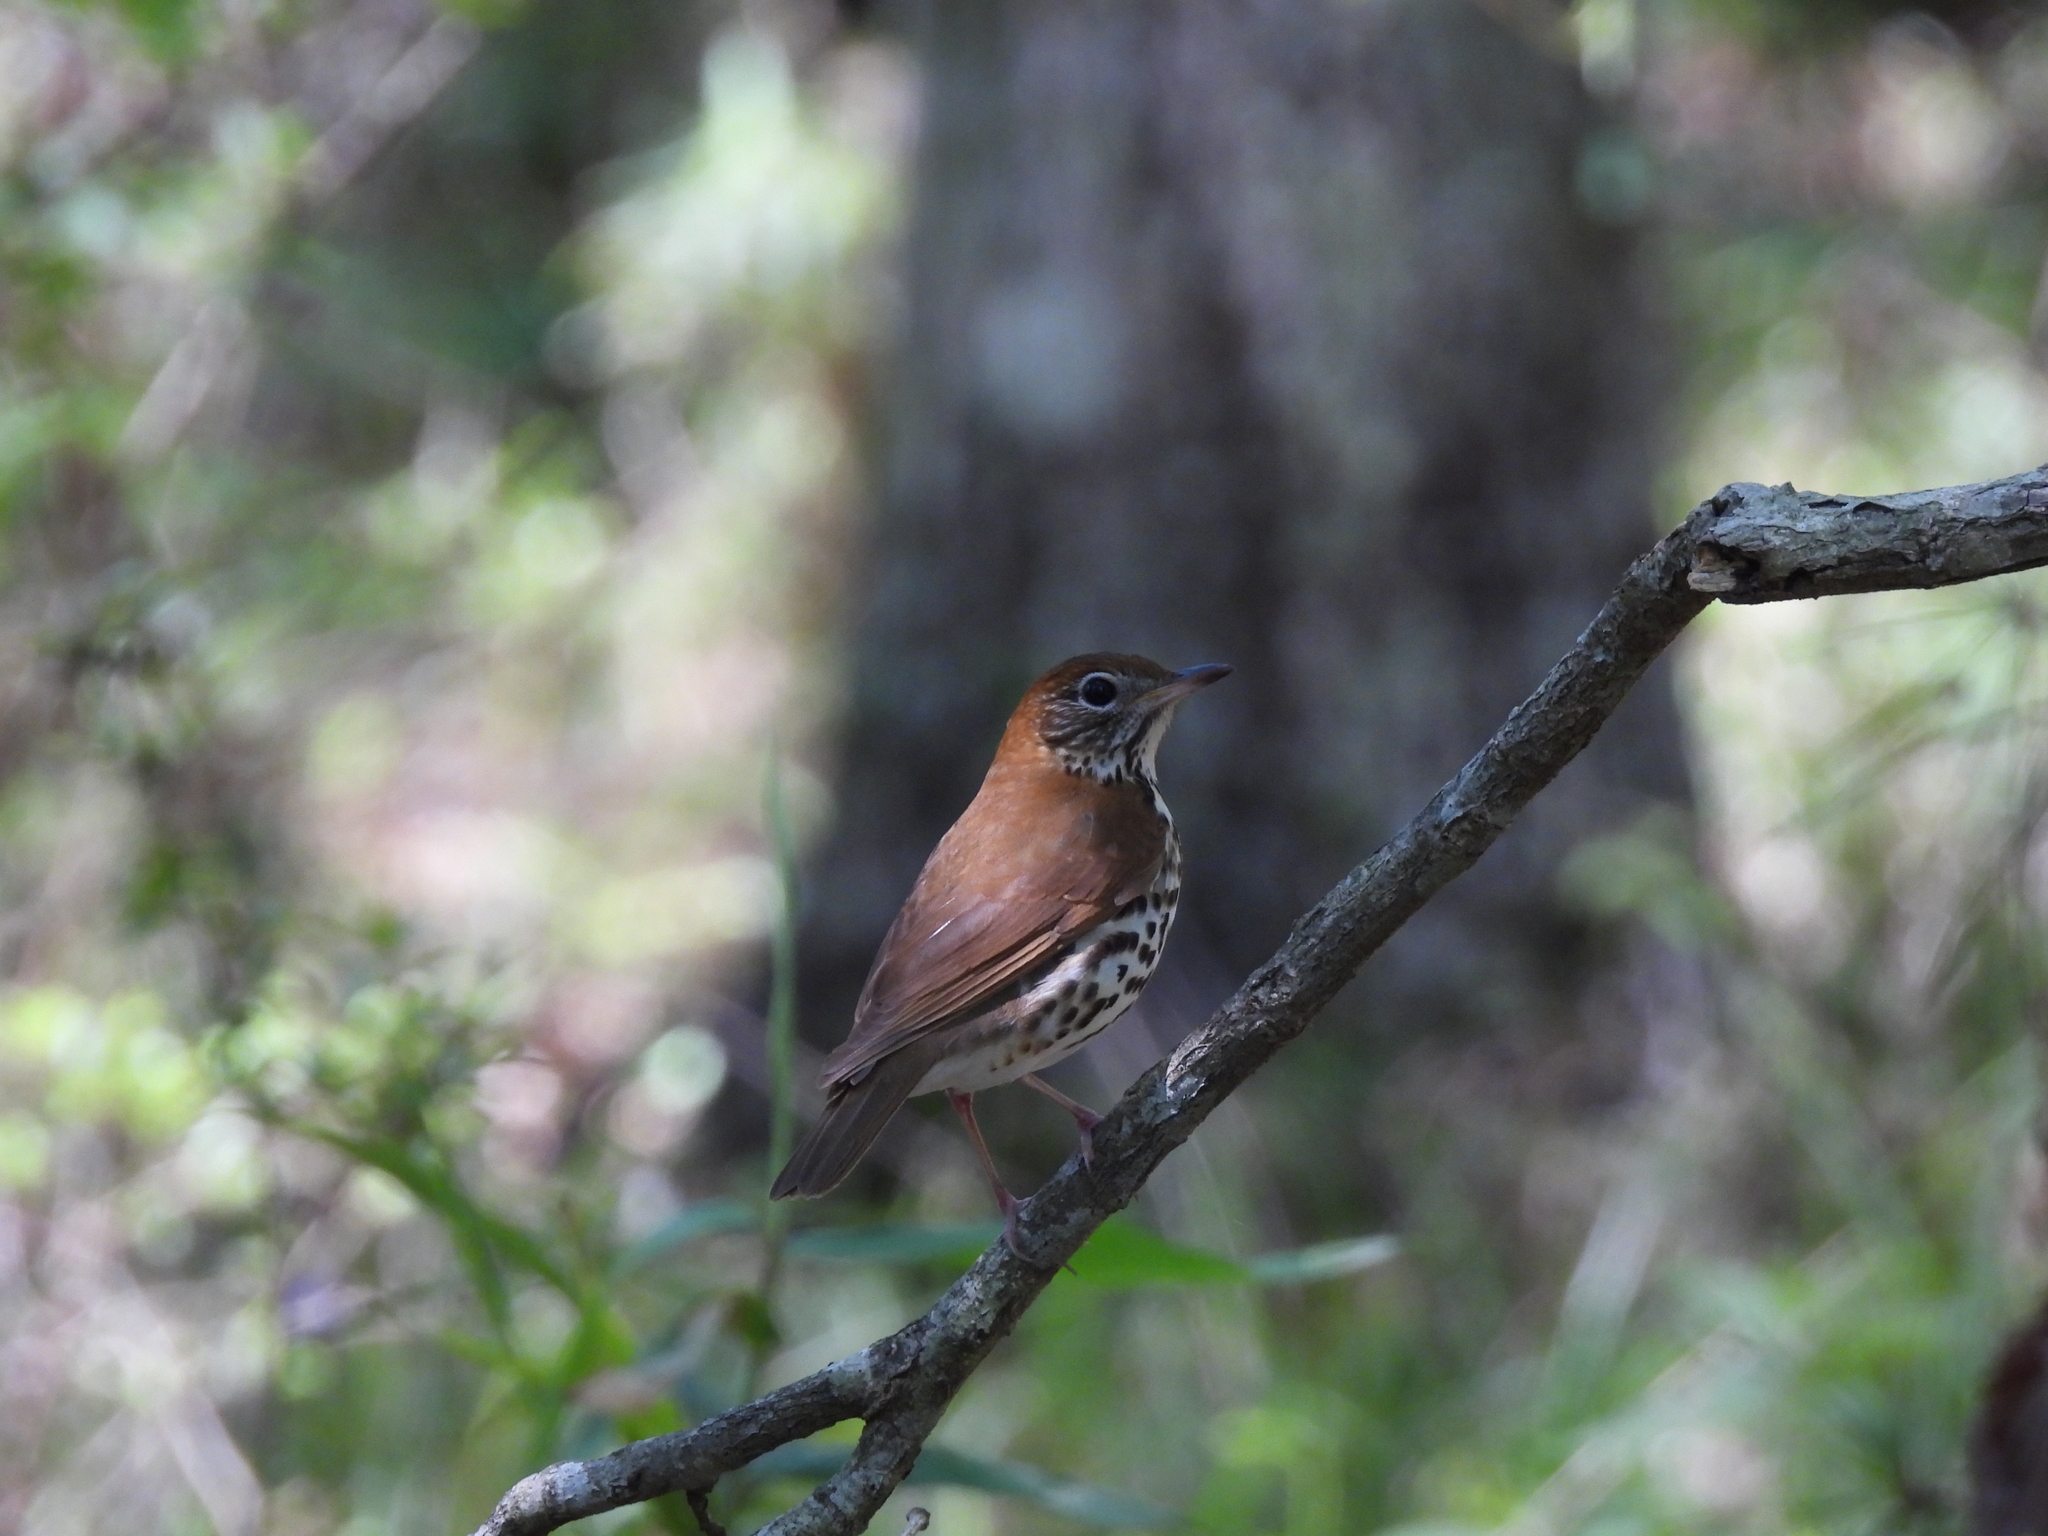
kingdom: Animalia
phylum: Chordata
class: Aves
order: Passeriformes
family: Turdidae
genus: Hylocichla
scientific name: Hylocichla mustelina
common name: Wood thrush
